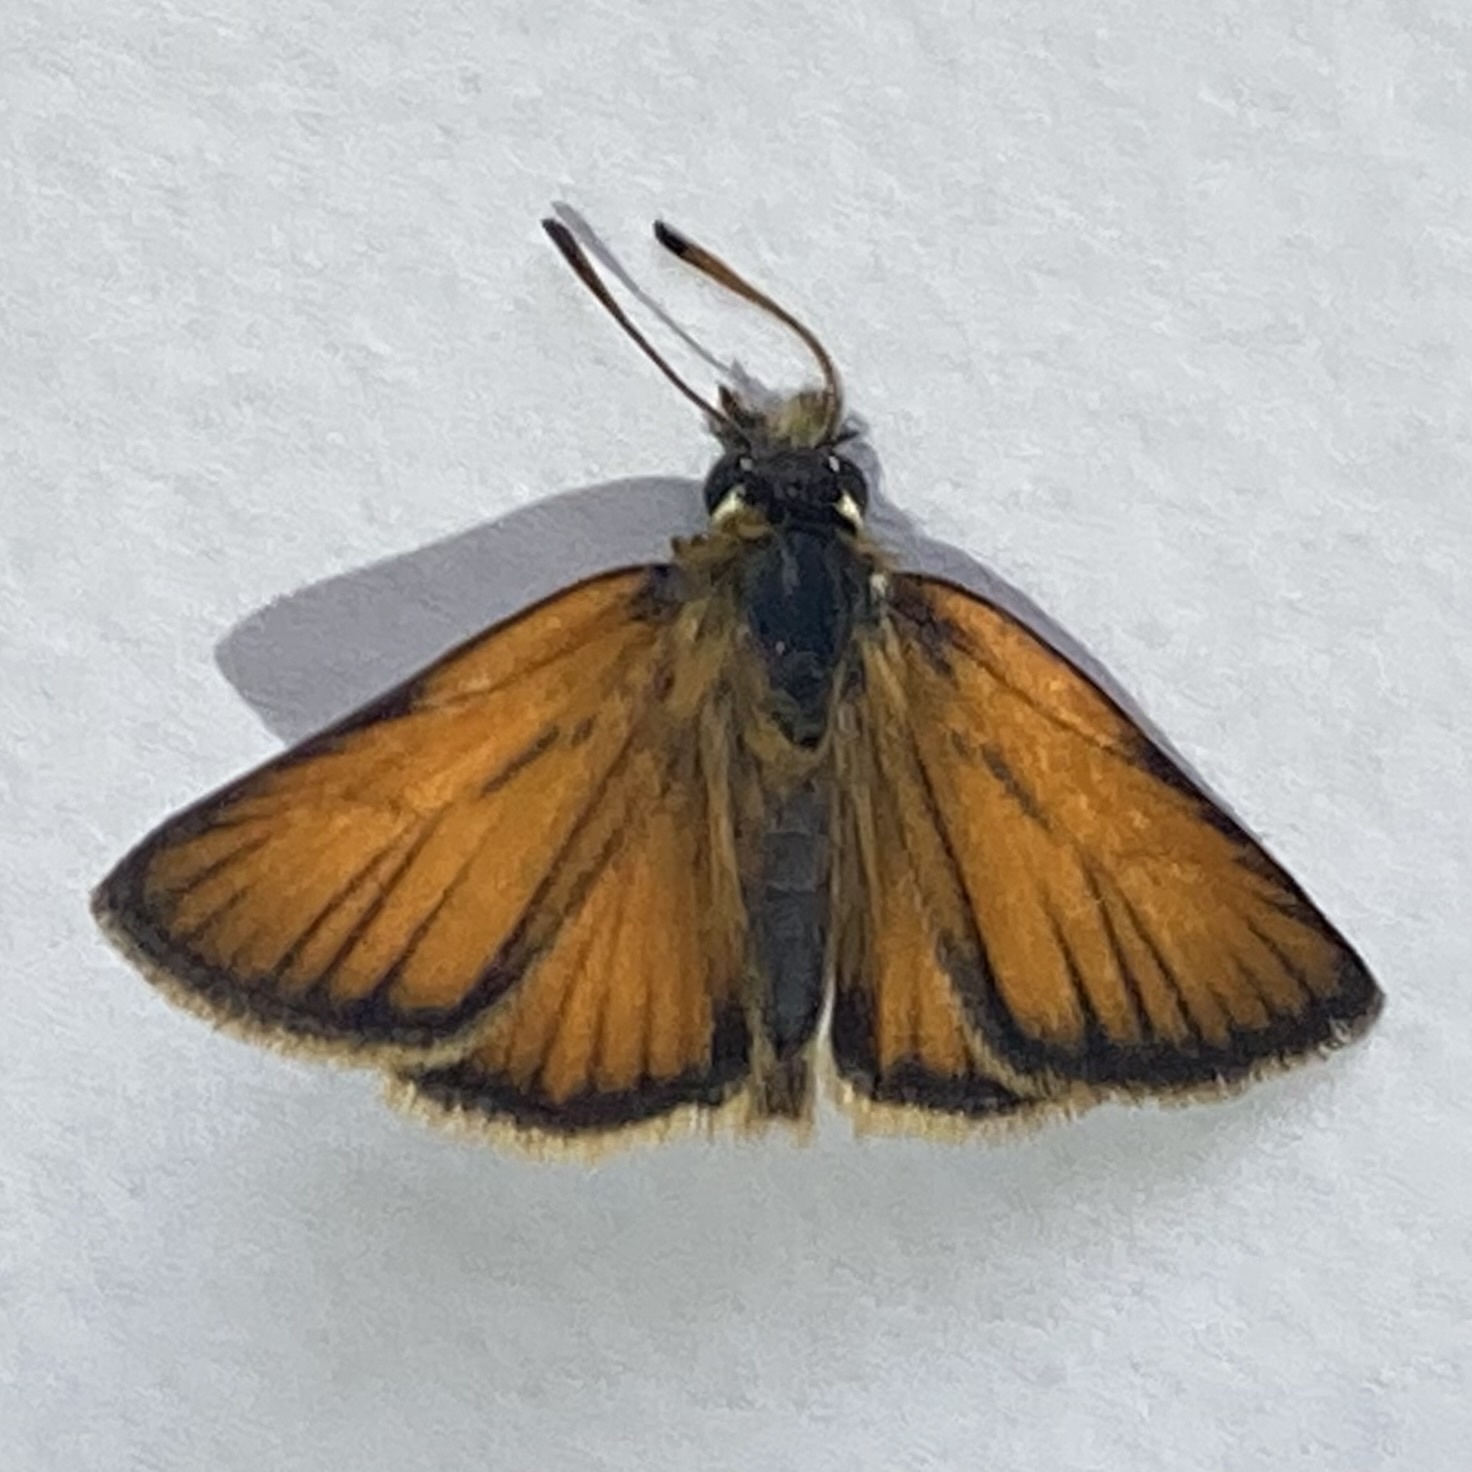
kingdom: Animalia
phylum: Arthropoda
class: Insecta
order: Lepidoptera
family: Hesperiidae
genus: Thymelicus
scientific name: Thymelicus lineola
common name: Essex skipper
